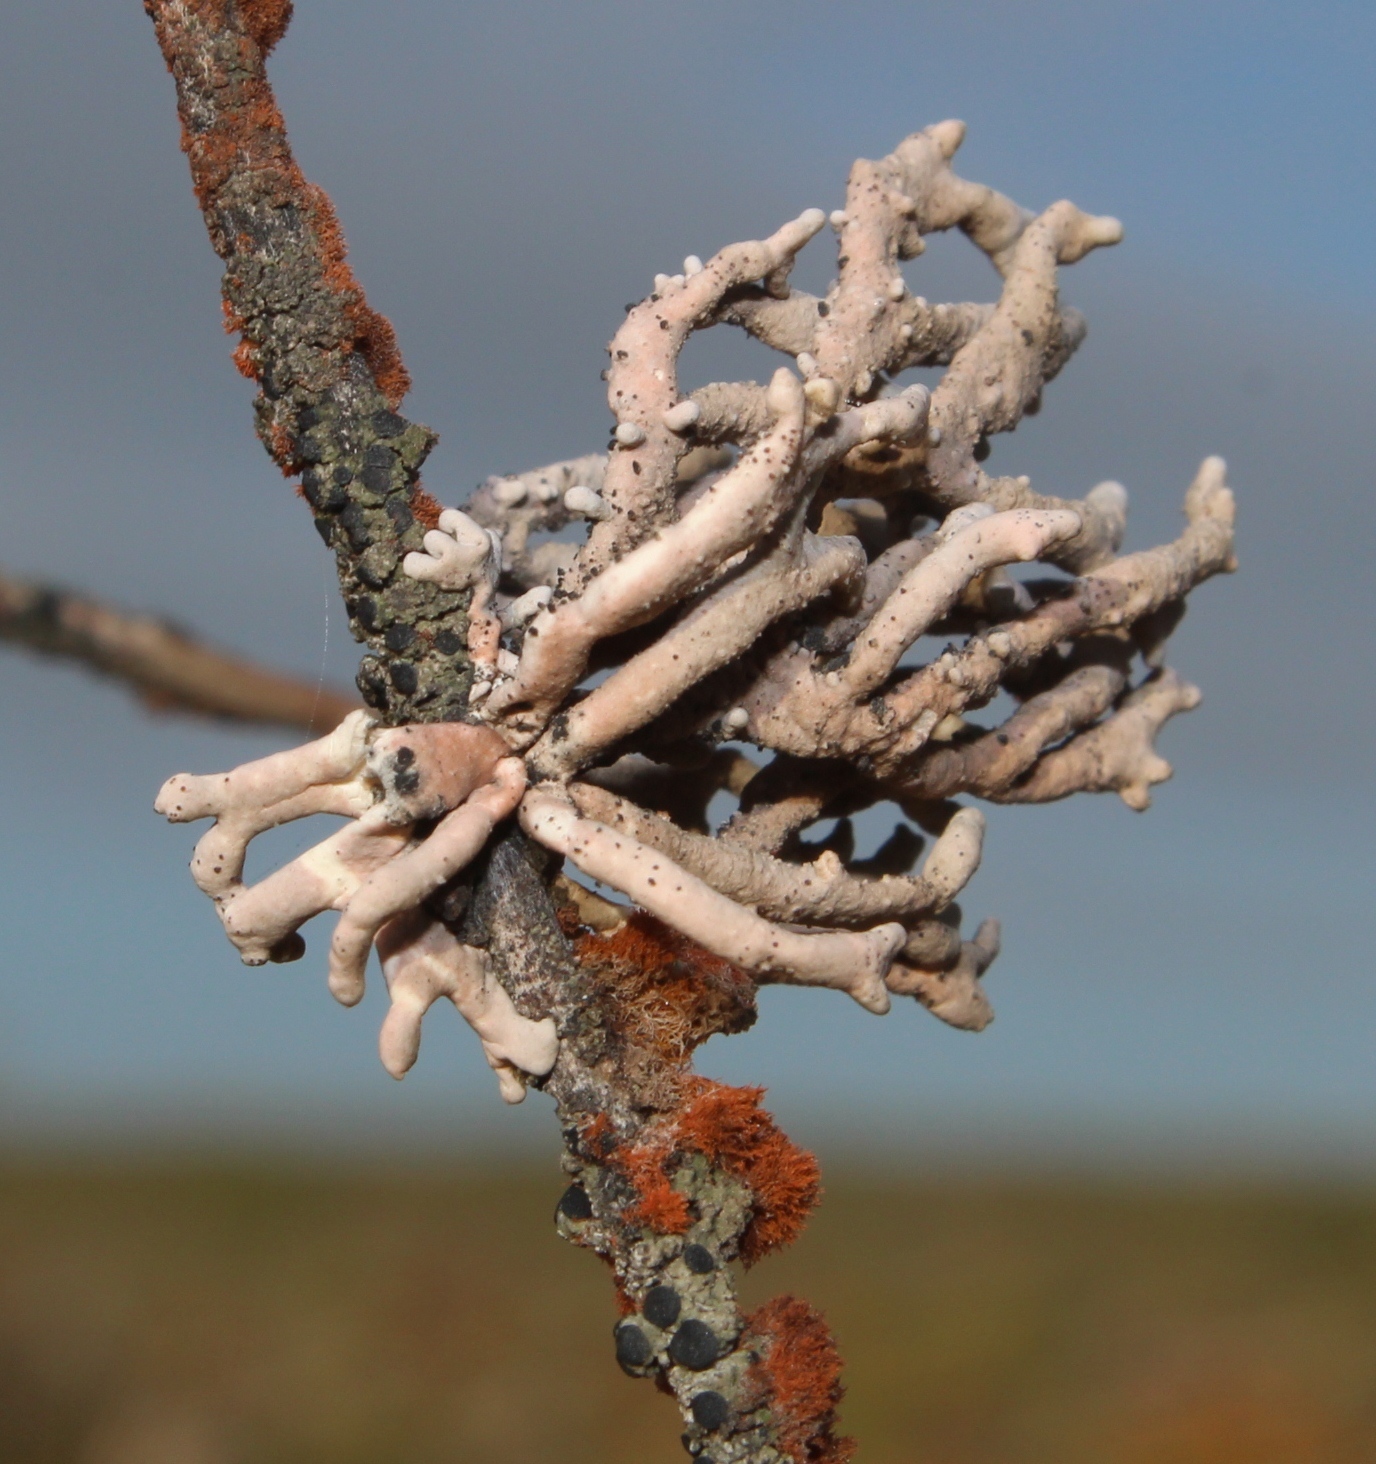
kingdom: Fungi
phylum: Ascomycota
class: Arthoniomycetes
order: Arthoniales
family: Opegraphaceae
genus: Combea
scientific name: Combea mollusca
